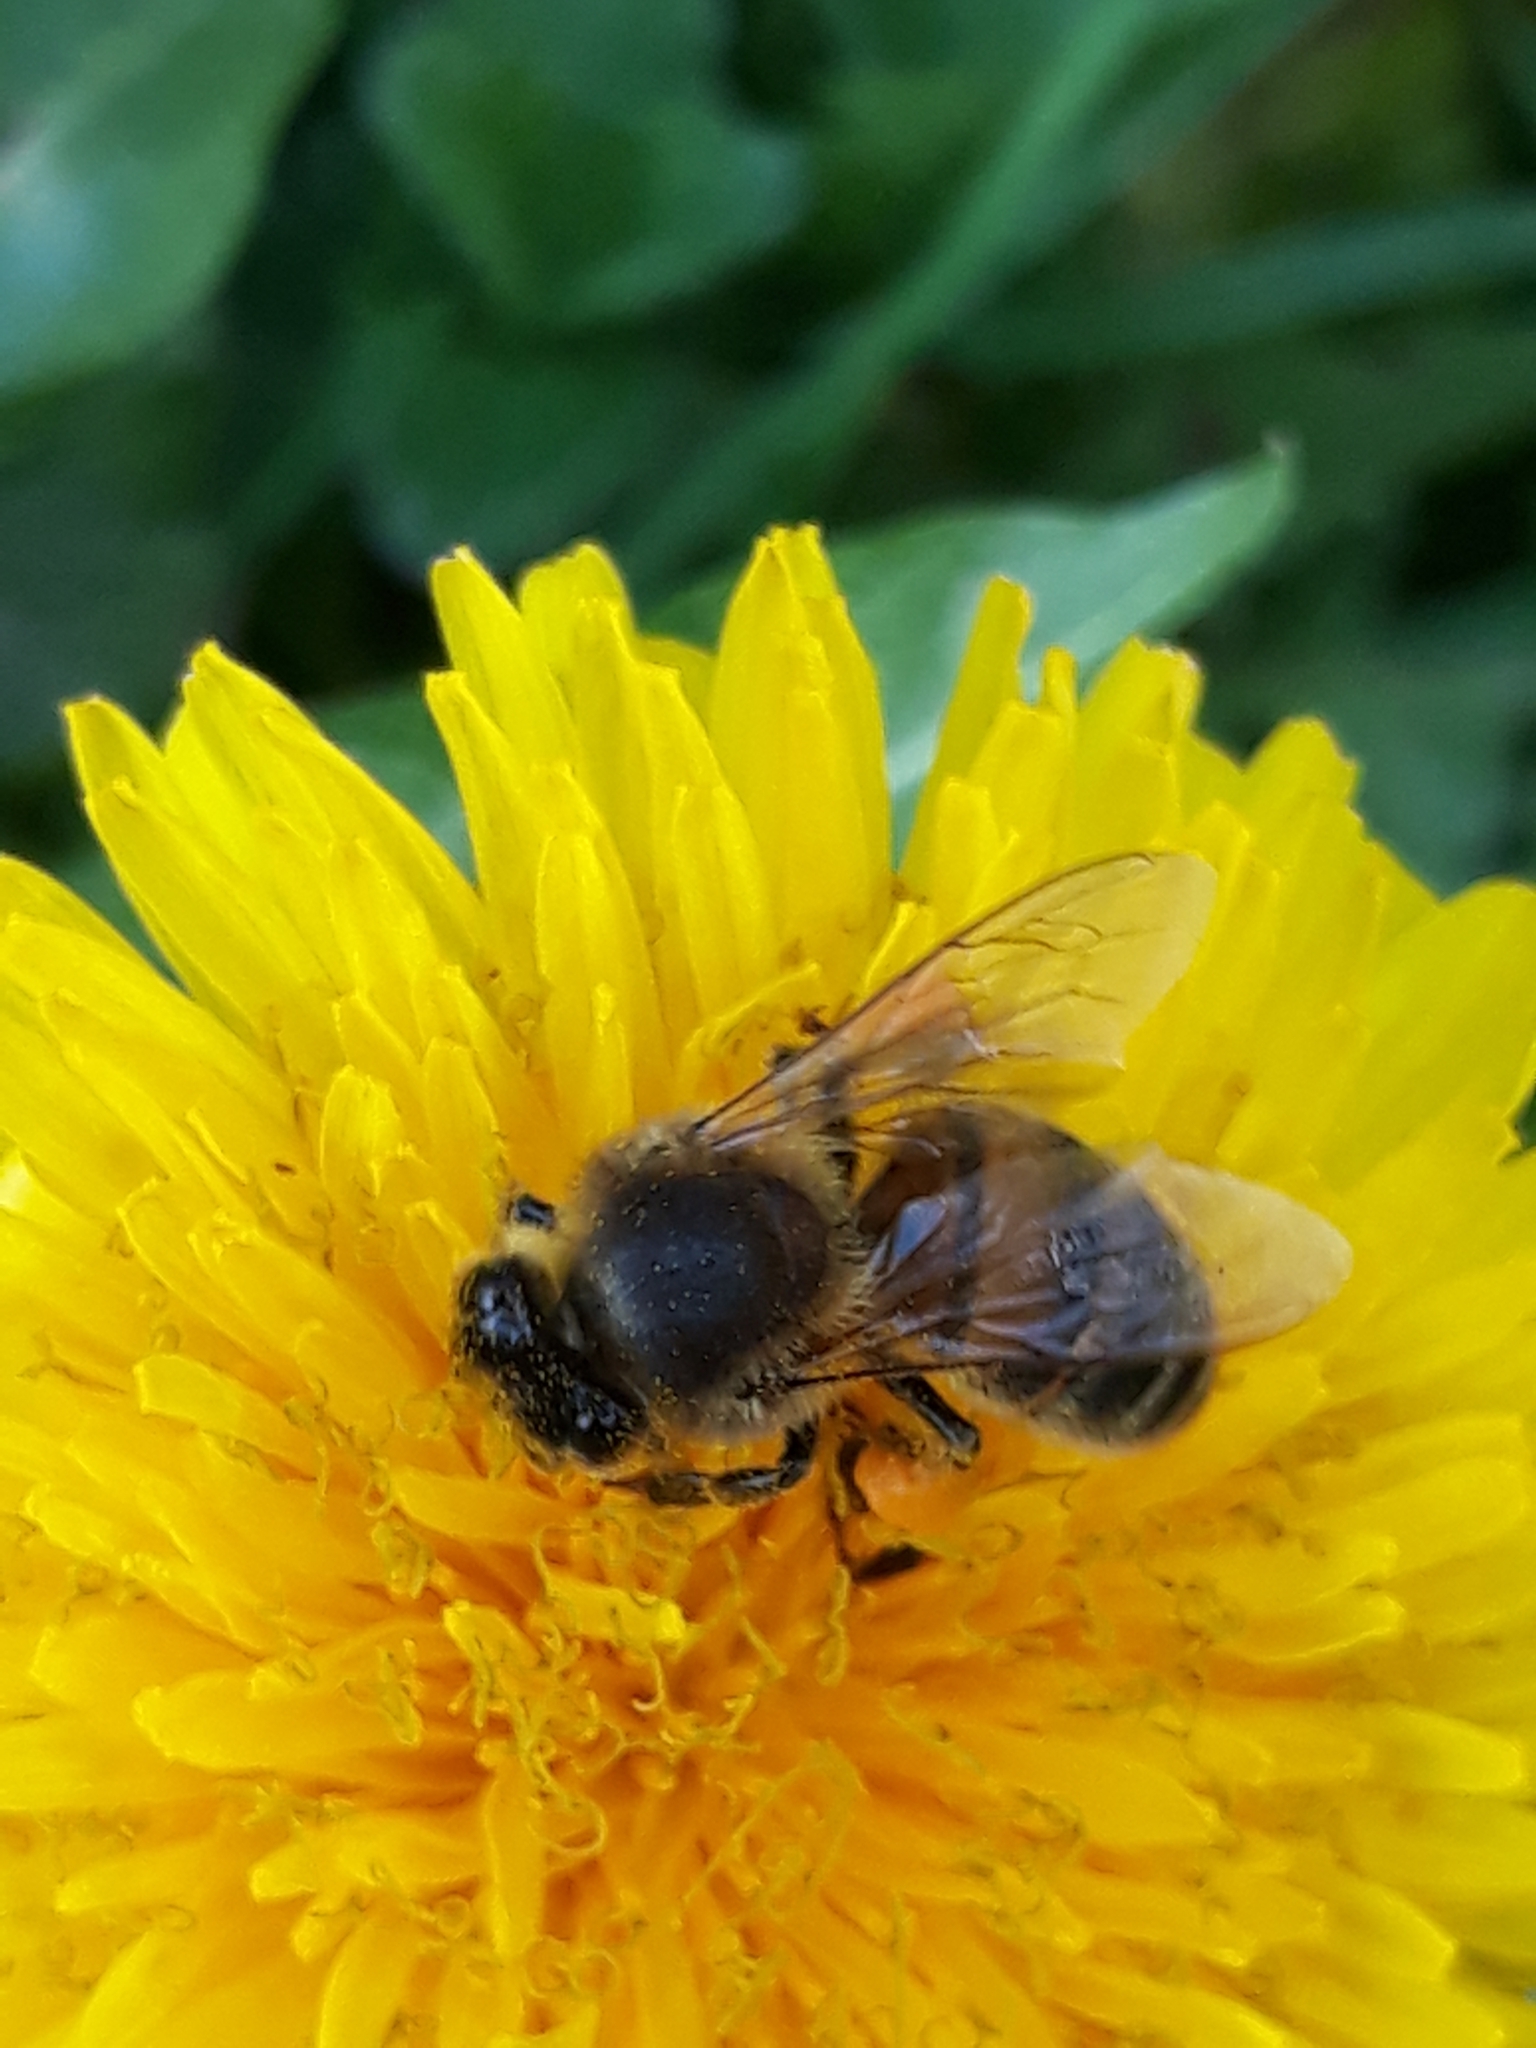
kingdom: Animalia
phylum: Arthropoda
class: Insecta
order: Hymenoptera
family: Apidae
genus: Apis
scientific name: Apis mellifera
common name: Honey bee
